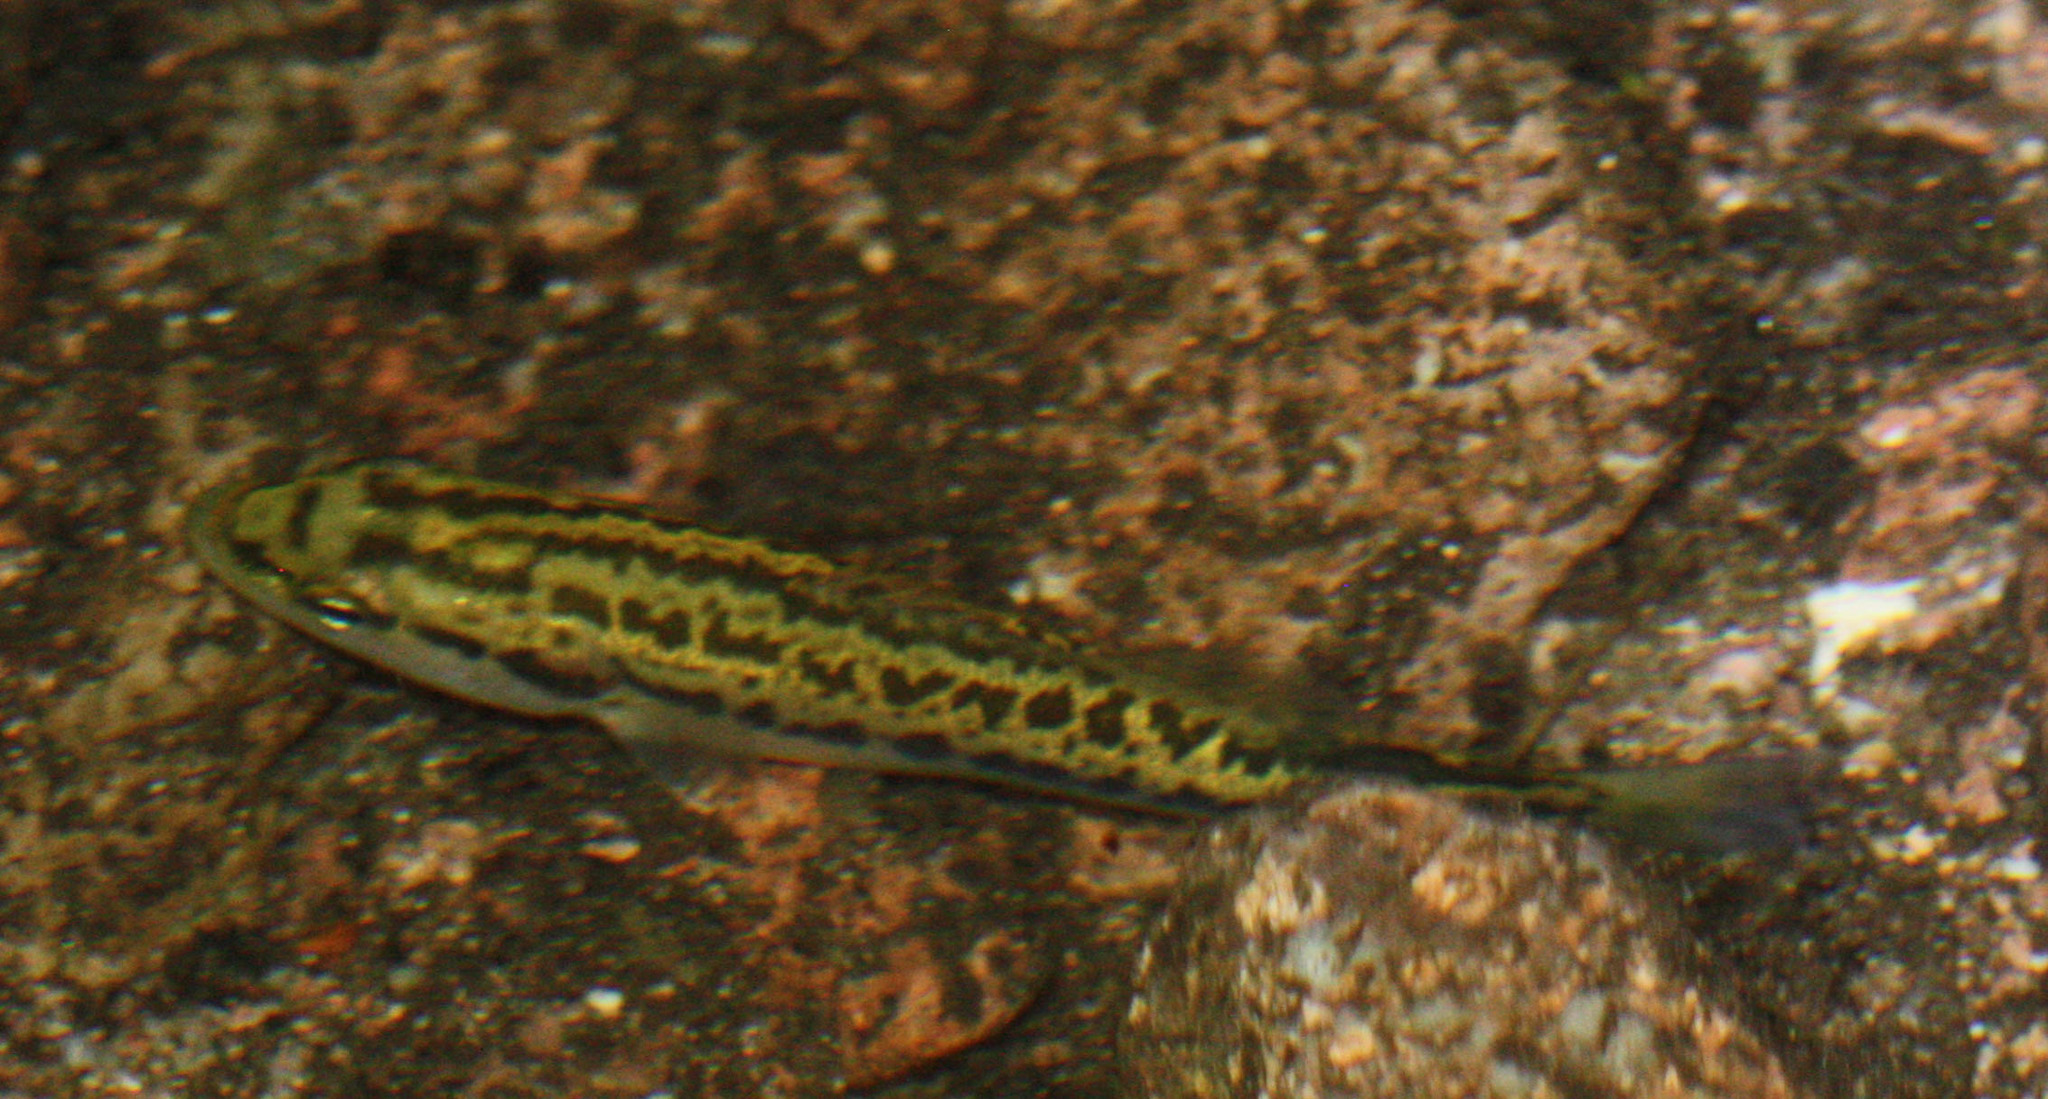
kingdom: Animalia
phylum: Chordata
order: Perciformes
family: Centrarchidae
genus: Micropterus
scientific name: Micropterus
